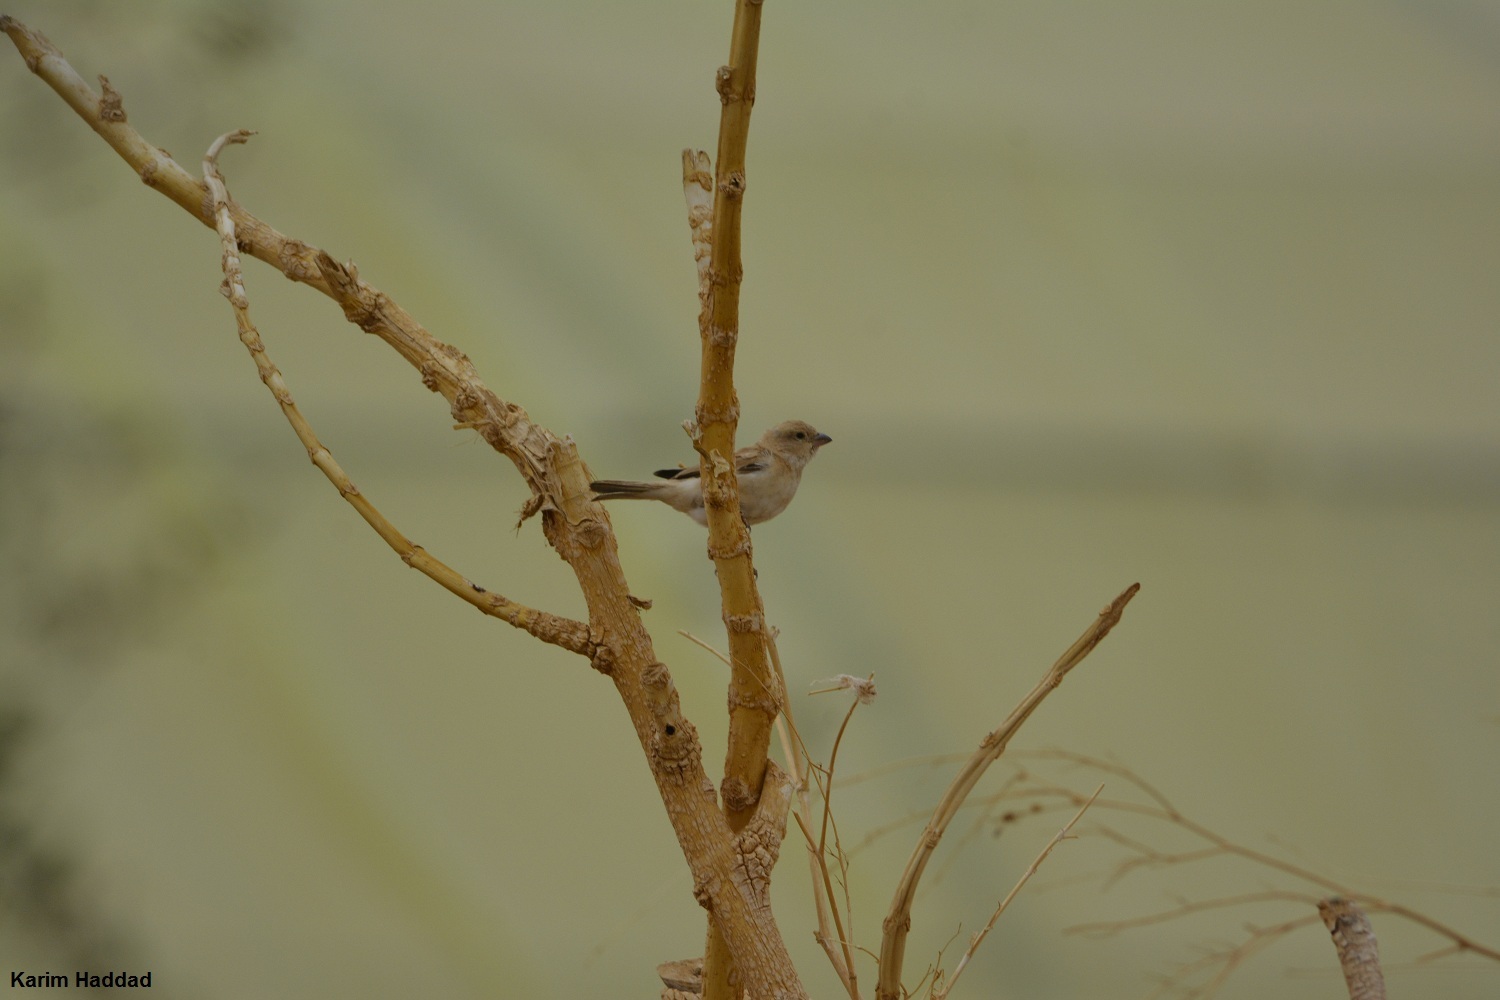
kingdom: Animalia
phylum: Chordata
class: Aves
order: Passeriformes
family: Passeridae
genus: Passer
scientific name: Passer simplex
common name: Desert sparrow
